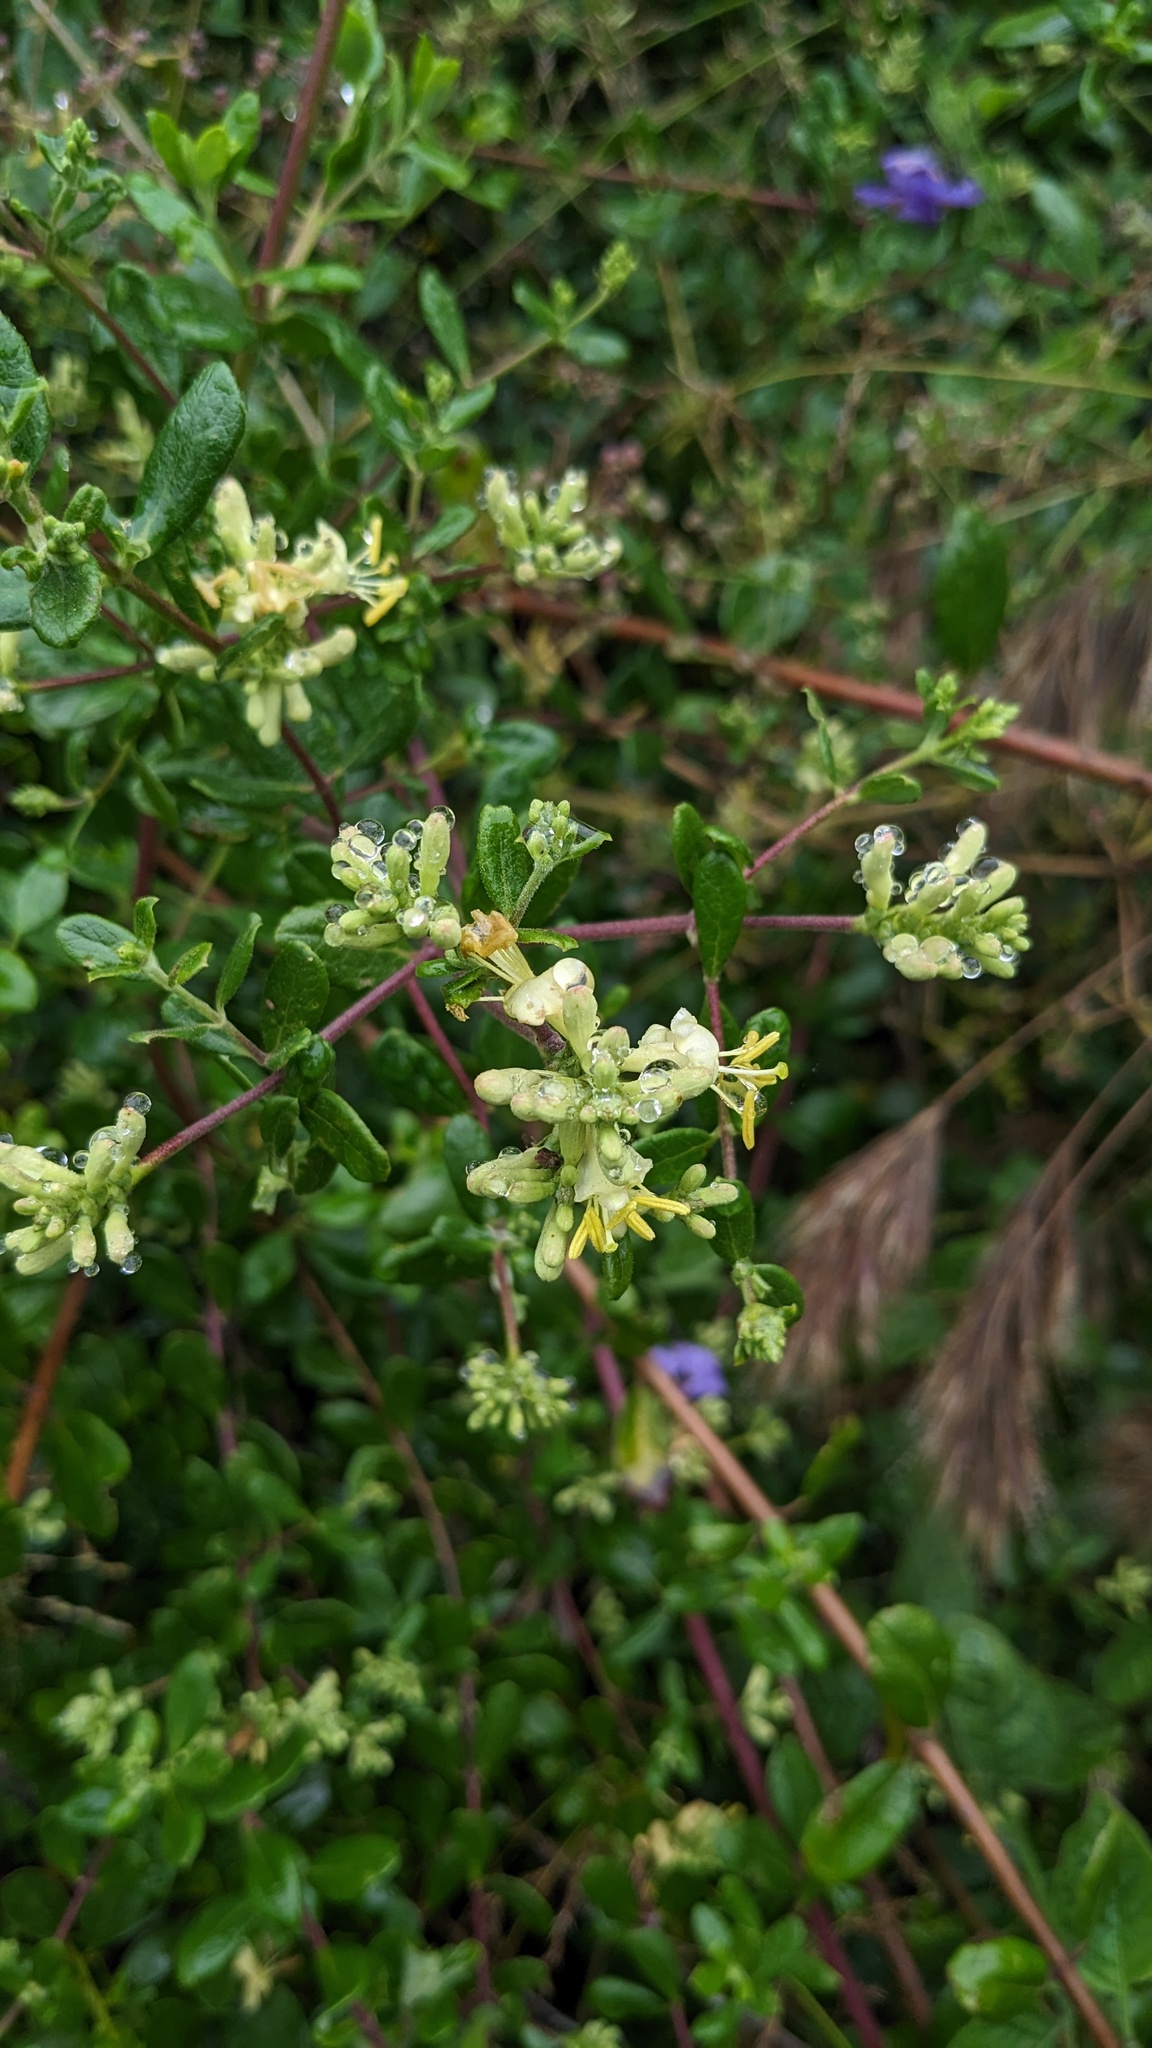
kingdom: Plantae
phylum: Tracheophyta
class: Magnoliopsida
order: Dipsacales
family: Caprifoliaceae
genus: Lonicera
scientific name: Lonicera subspicata
